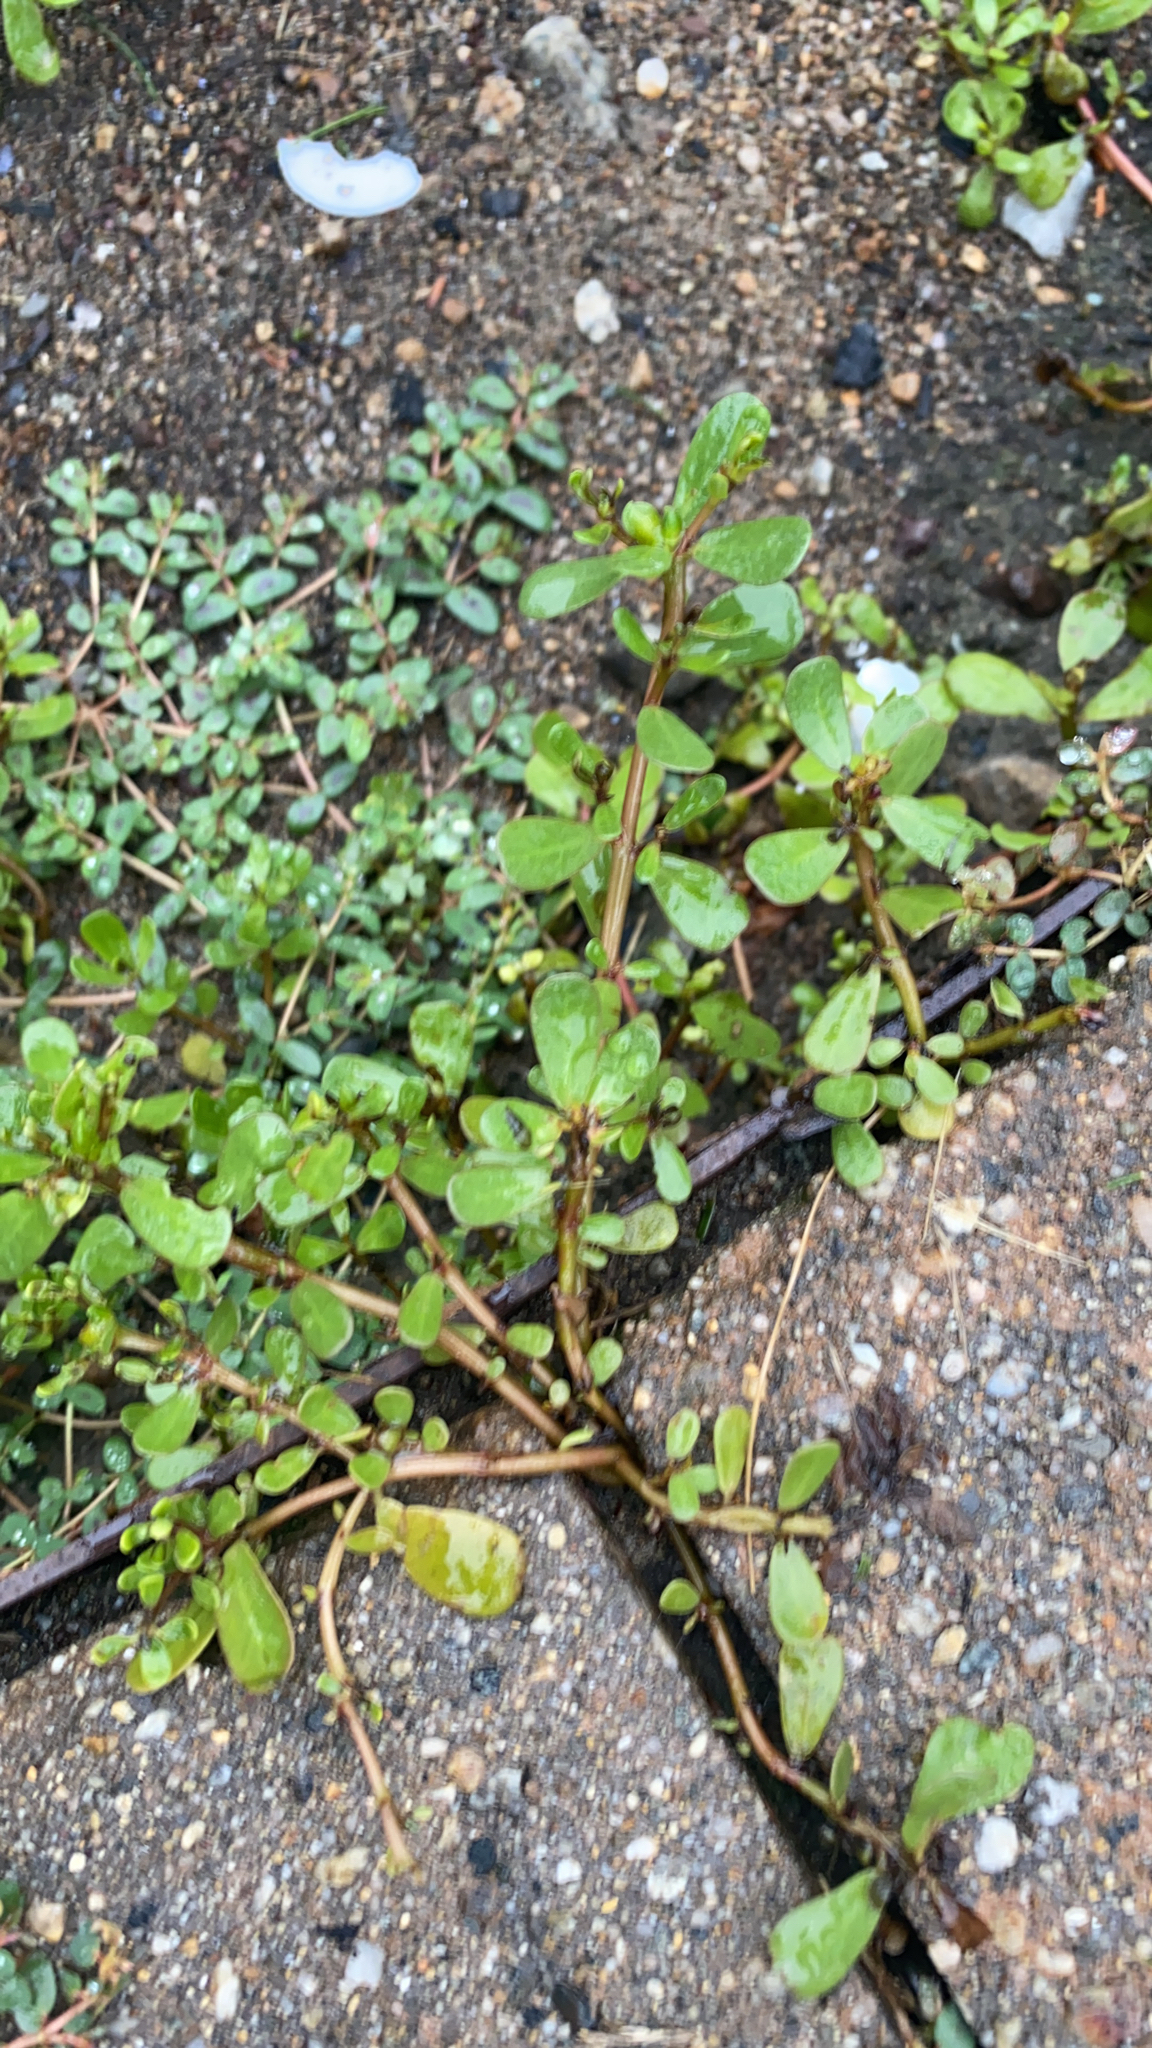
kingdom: Plantae
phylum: Tracheophyta
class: Magnoliopsida
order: Caryophyllales
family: Portulacaceae
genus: Portulaca
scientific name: Portulaca oleracea
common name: Common purslane
